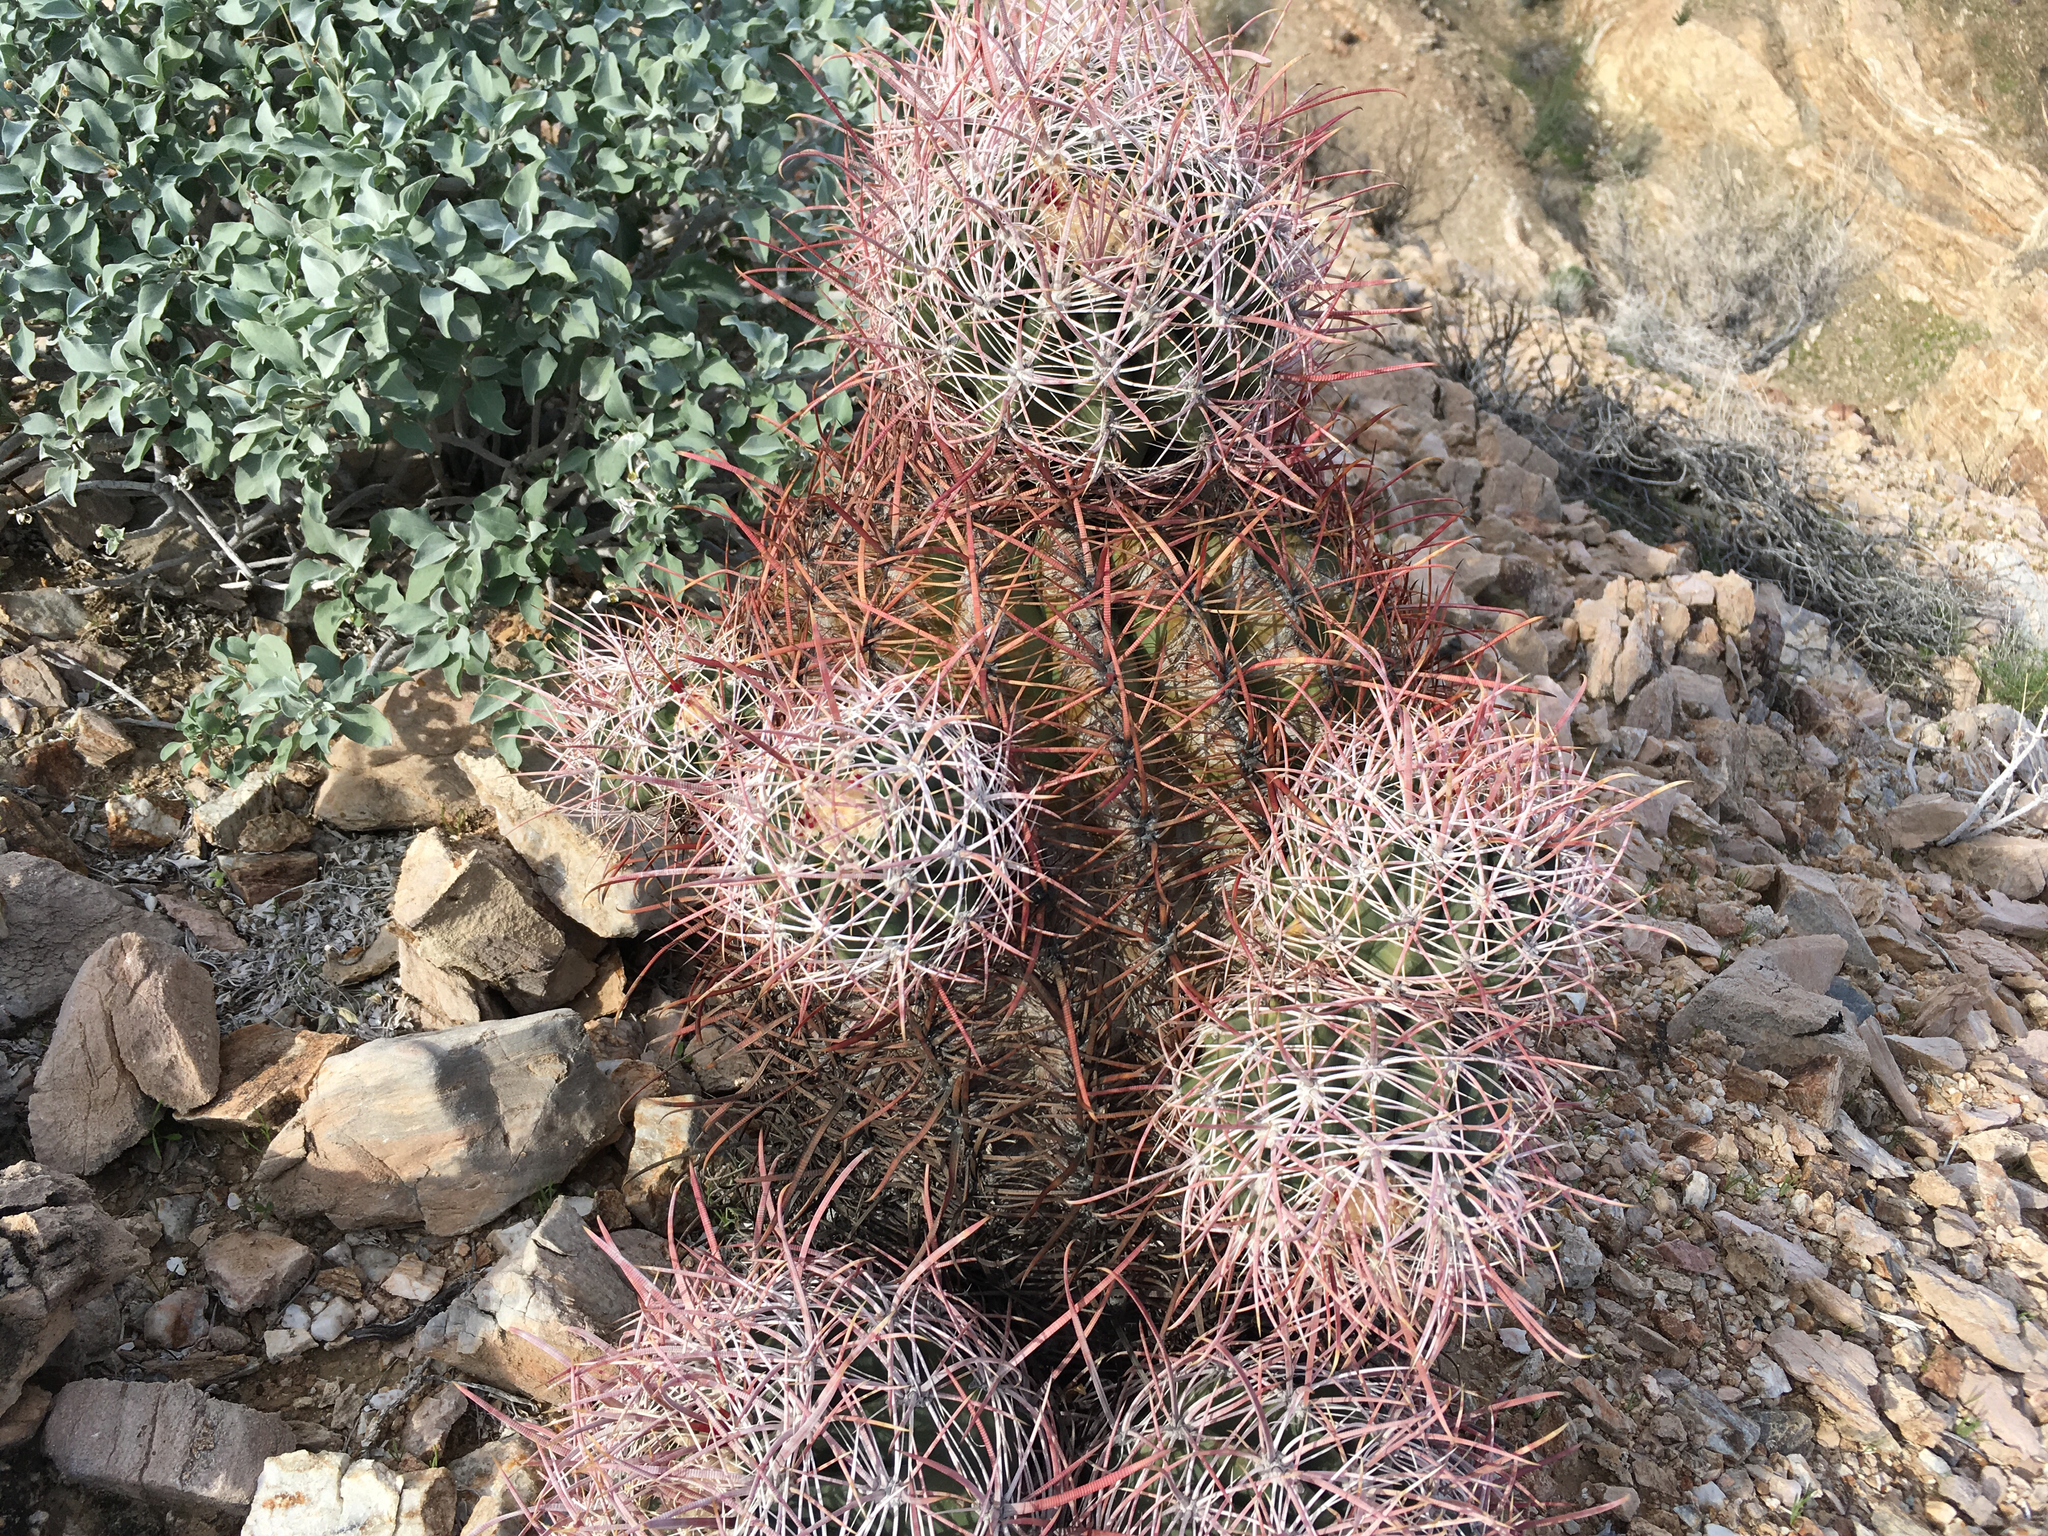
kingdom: Plantae
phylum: Tracheophyta
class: Magnoliopsida
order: Caryophyllales
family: Cactaceae
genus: Ferocactus
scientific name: Ferocactus cylindraceus
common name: California barrel cactus
